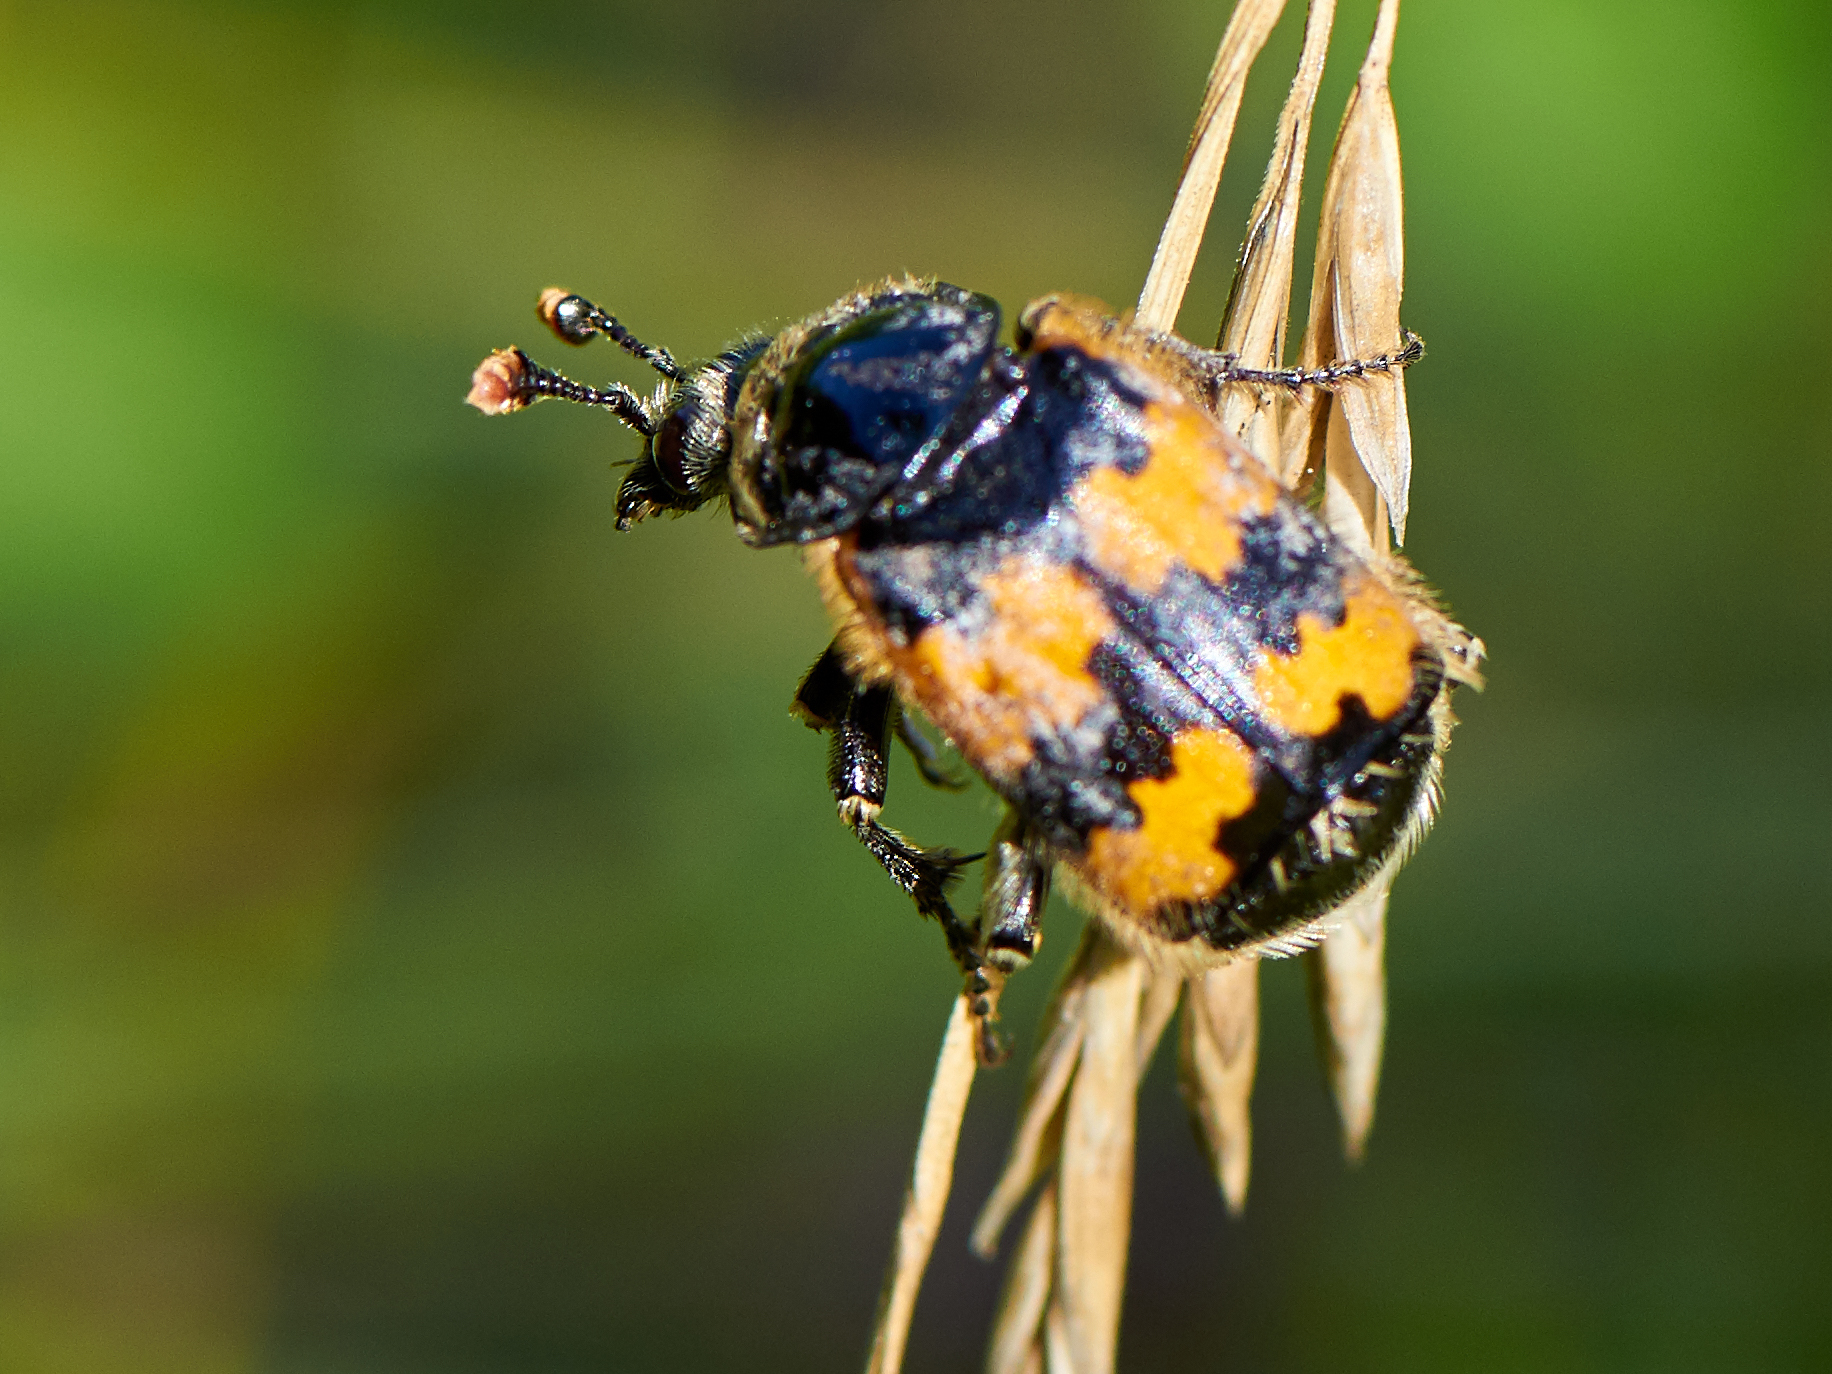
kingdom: Animalia
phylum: Arthropoda
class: Insecta
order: Coleoptera
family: Staphylinidae
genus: Nicrophorus
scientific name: Nicrophorus vespillo
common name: Common burying beetle
